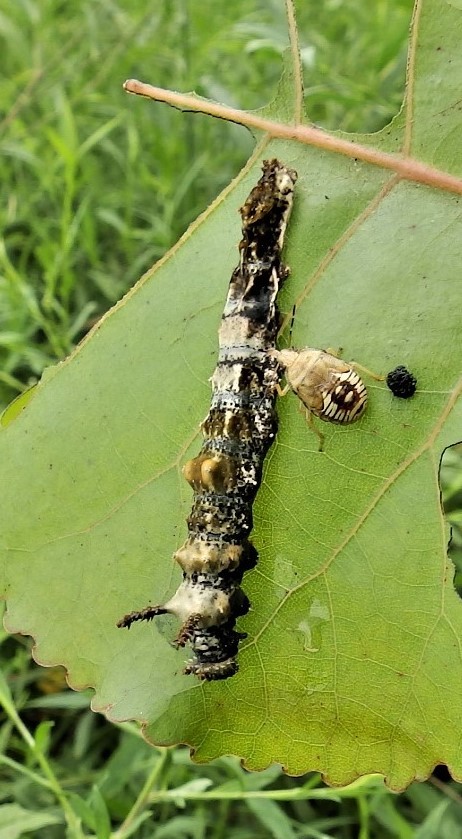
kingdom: Animalia
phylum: Arthropoda
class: Insecta
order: Lepidoptera
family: Nymphalidae
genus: Limenitis
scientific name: Limenitis archippus
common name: Viceroy
